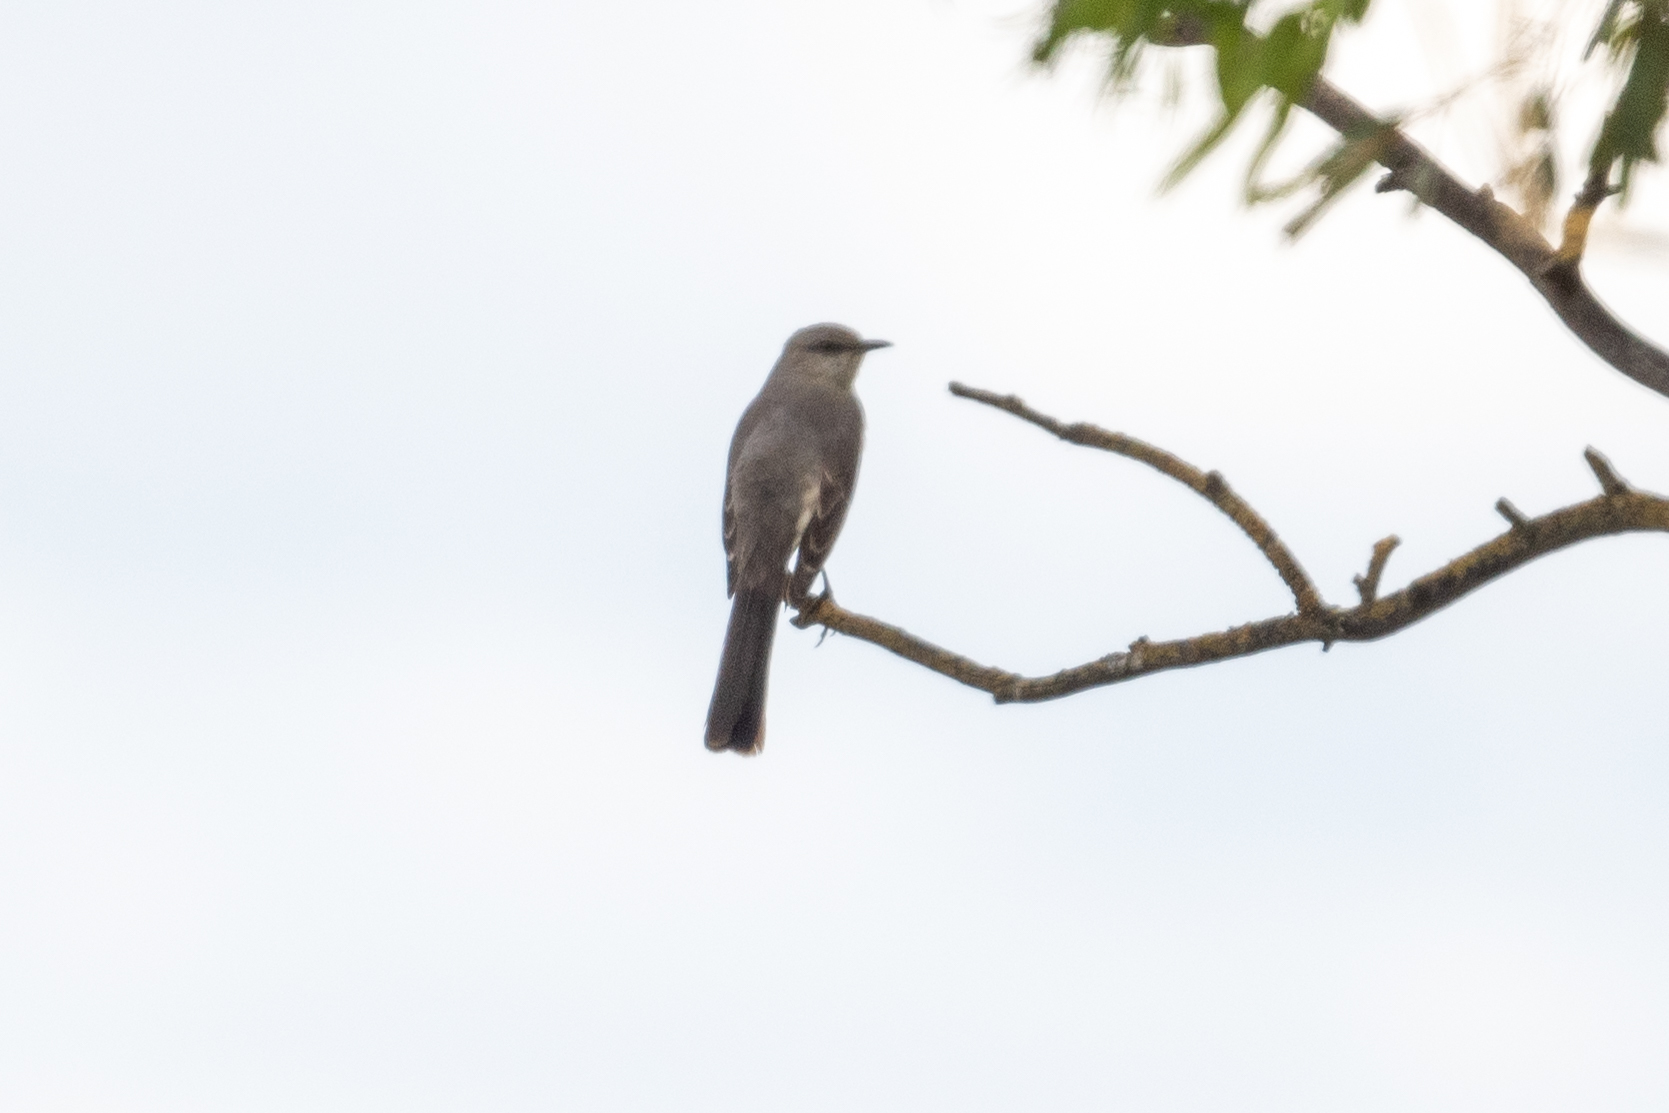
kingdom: Animalia
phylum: Chordata
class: Aves
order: Passeriformes
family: Mimidae
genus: Mimus
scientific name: Mimus polyglottos
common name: Northern mockingbird
